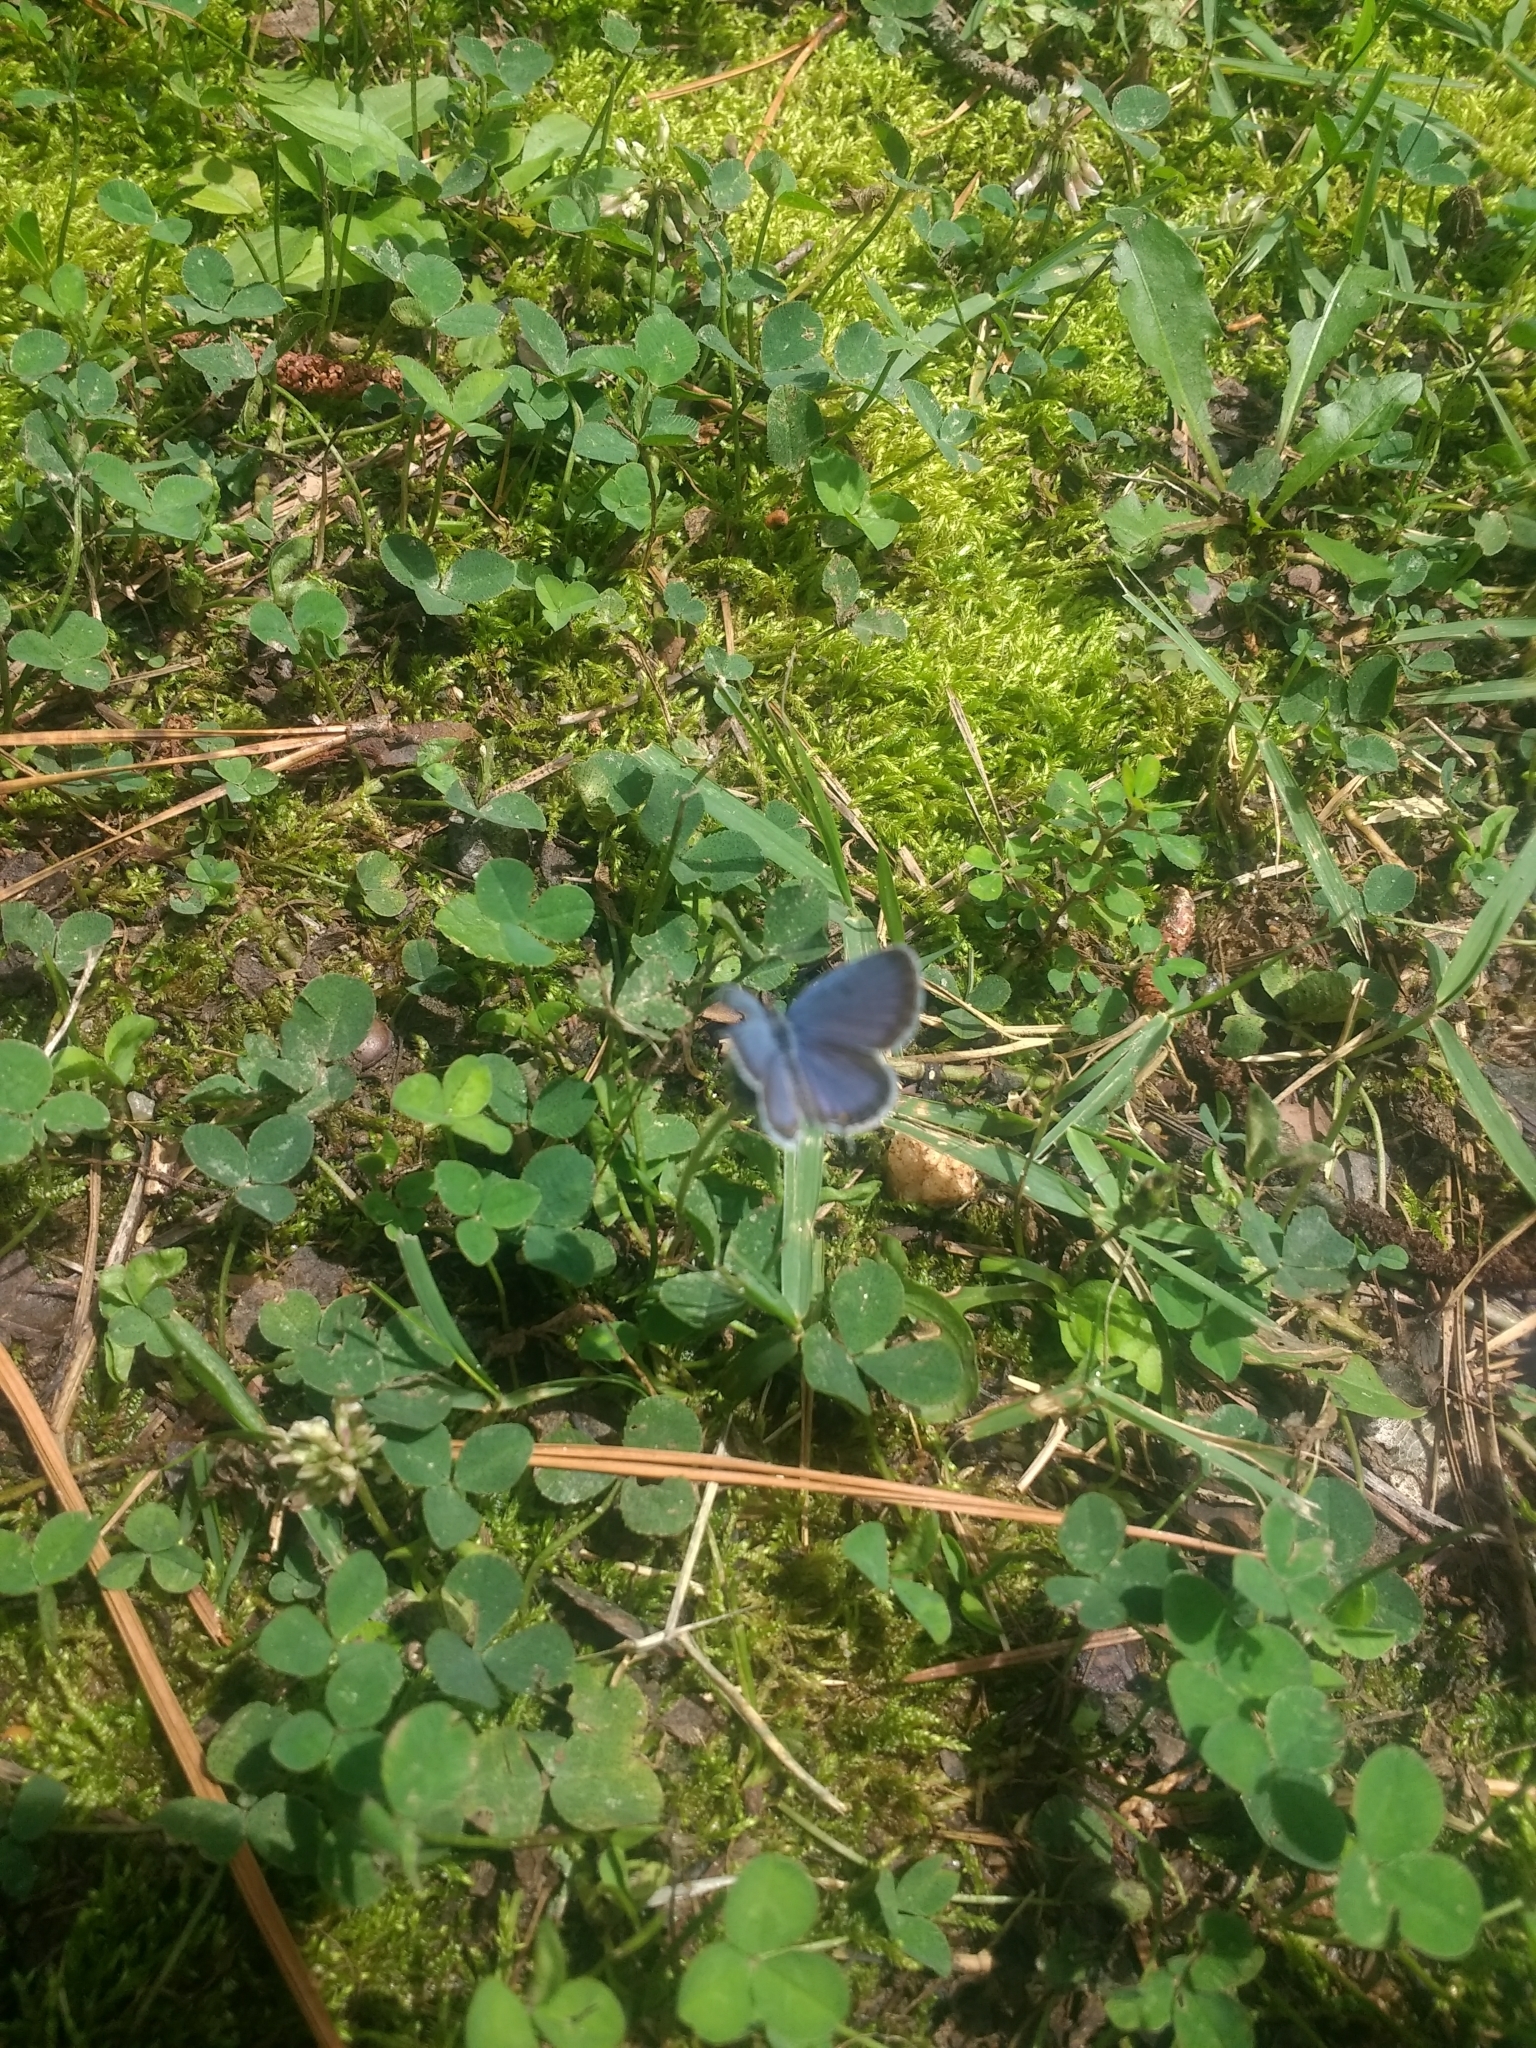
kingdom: Animalia
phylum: Arthropoda
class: Insecta
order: Lepidoptera
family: Lycaenidae
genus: Elkalyce
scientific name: Elkalyce comyntas
